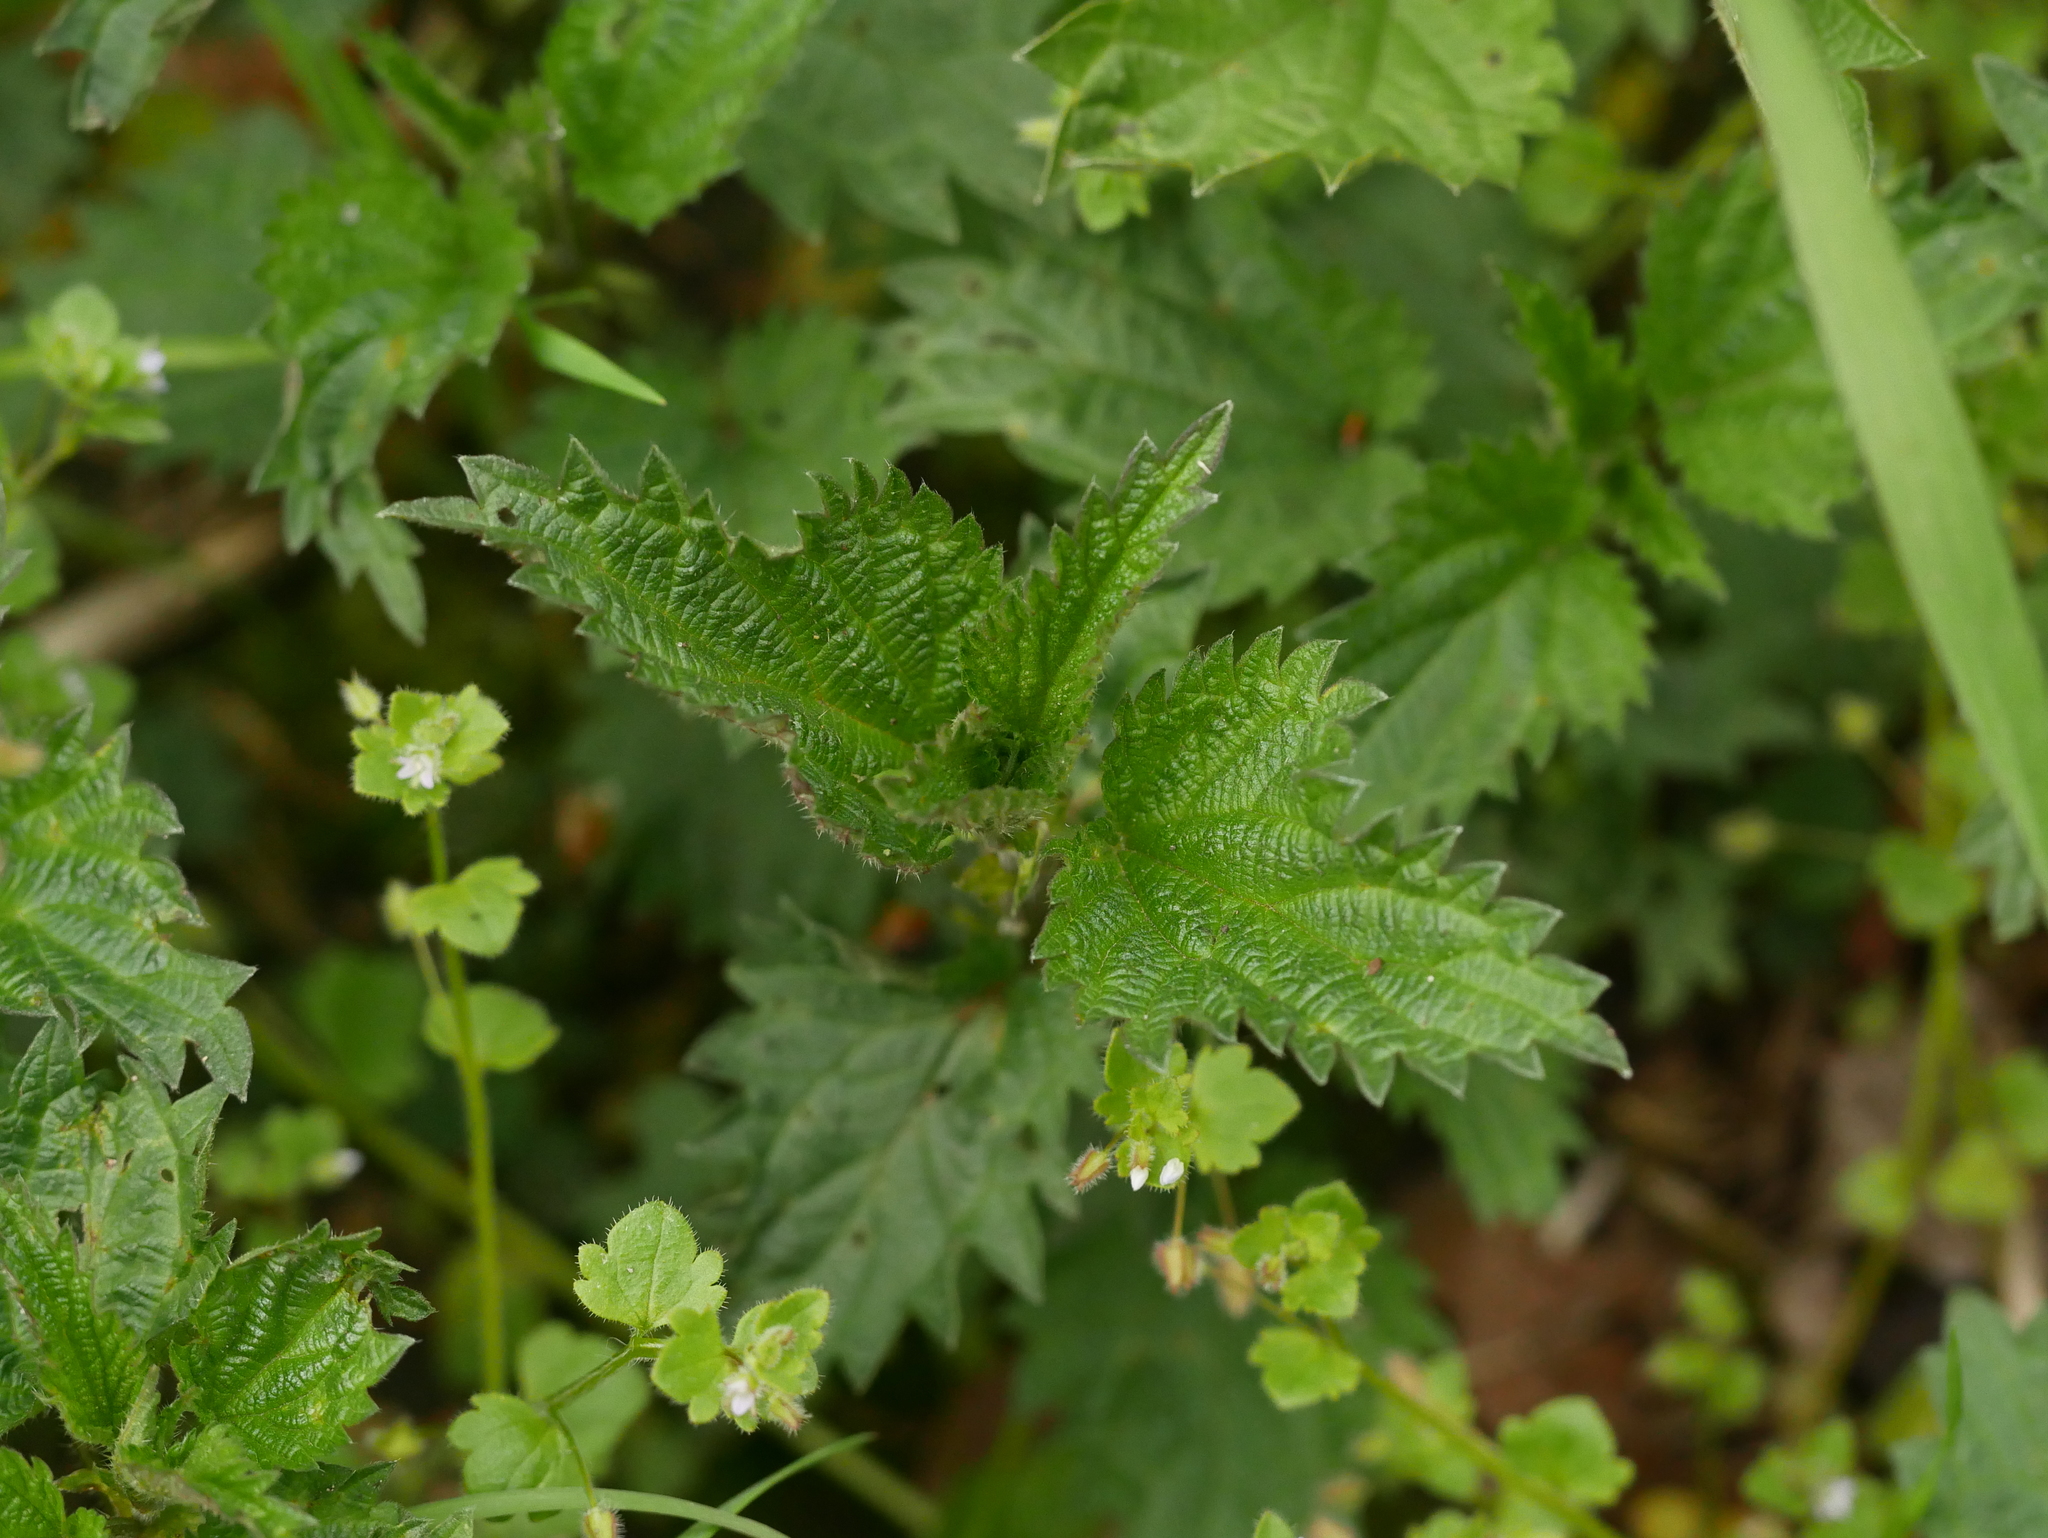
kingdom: Plantae
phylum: Tracheophyta
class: Magnoliopsida
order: Rosales
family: Urticaceae
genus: Urtica
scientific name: Urtica dioica
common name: Common nettle
